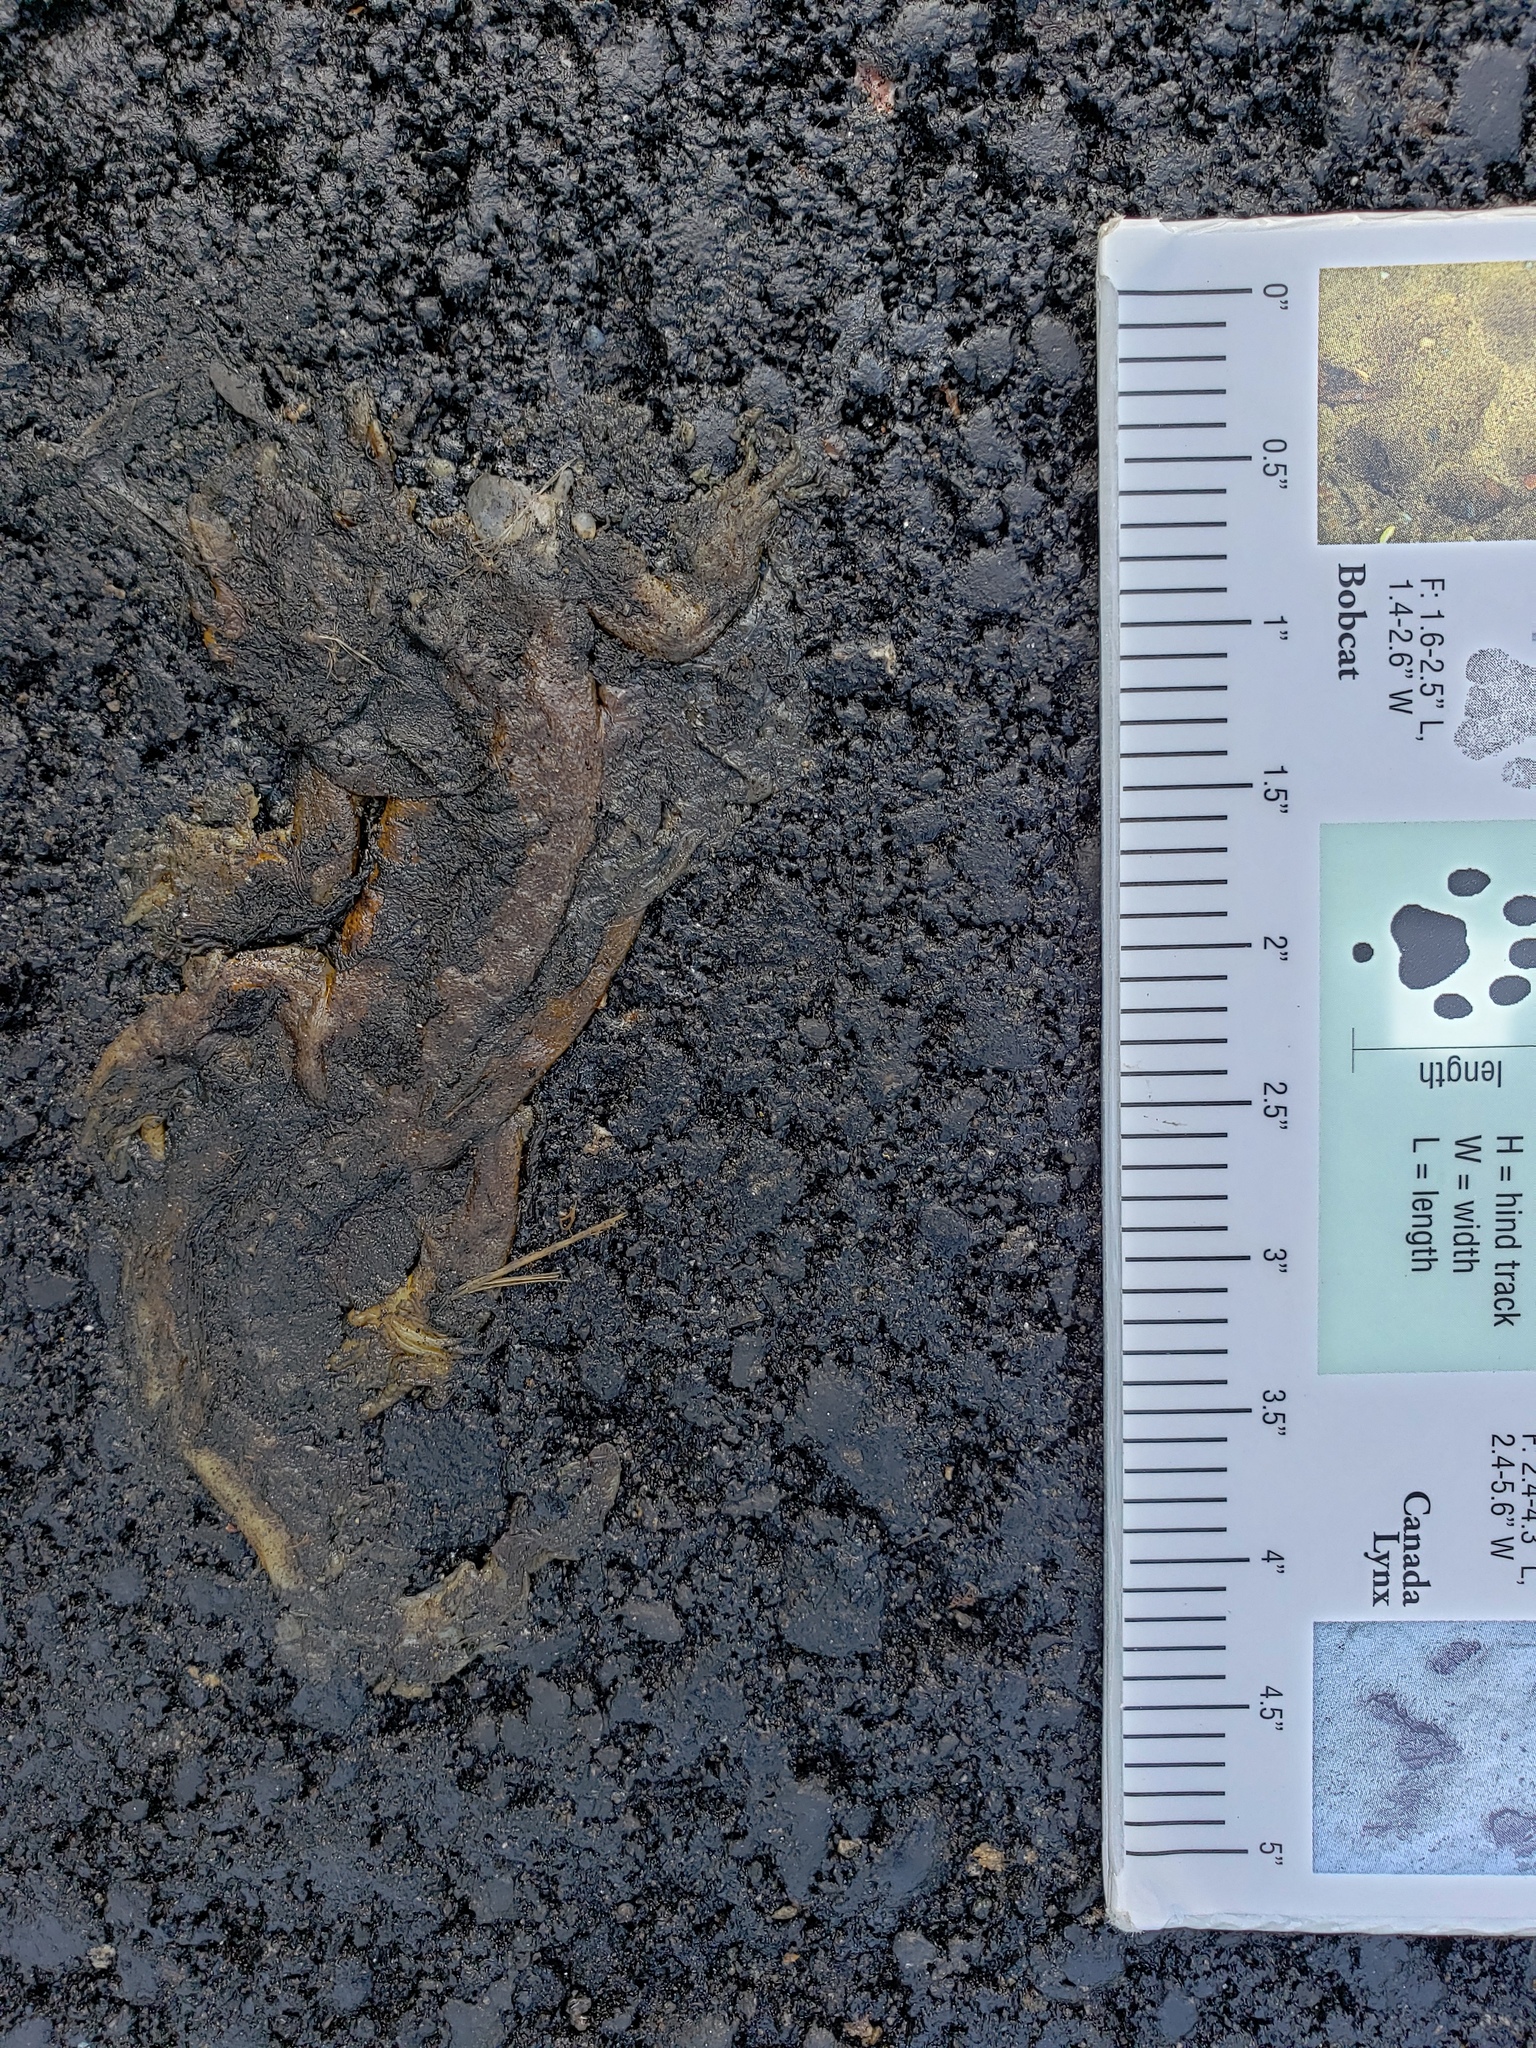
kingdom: Animalia
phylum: Chordata
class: Amphibia
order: Caudata
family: Salamandridae
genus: Taricha
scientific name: Taricha
